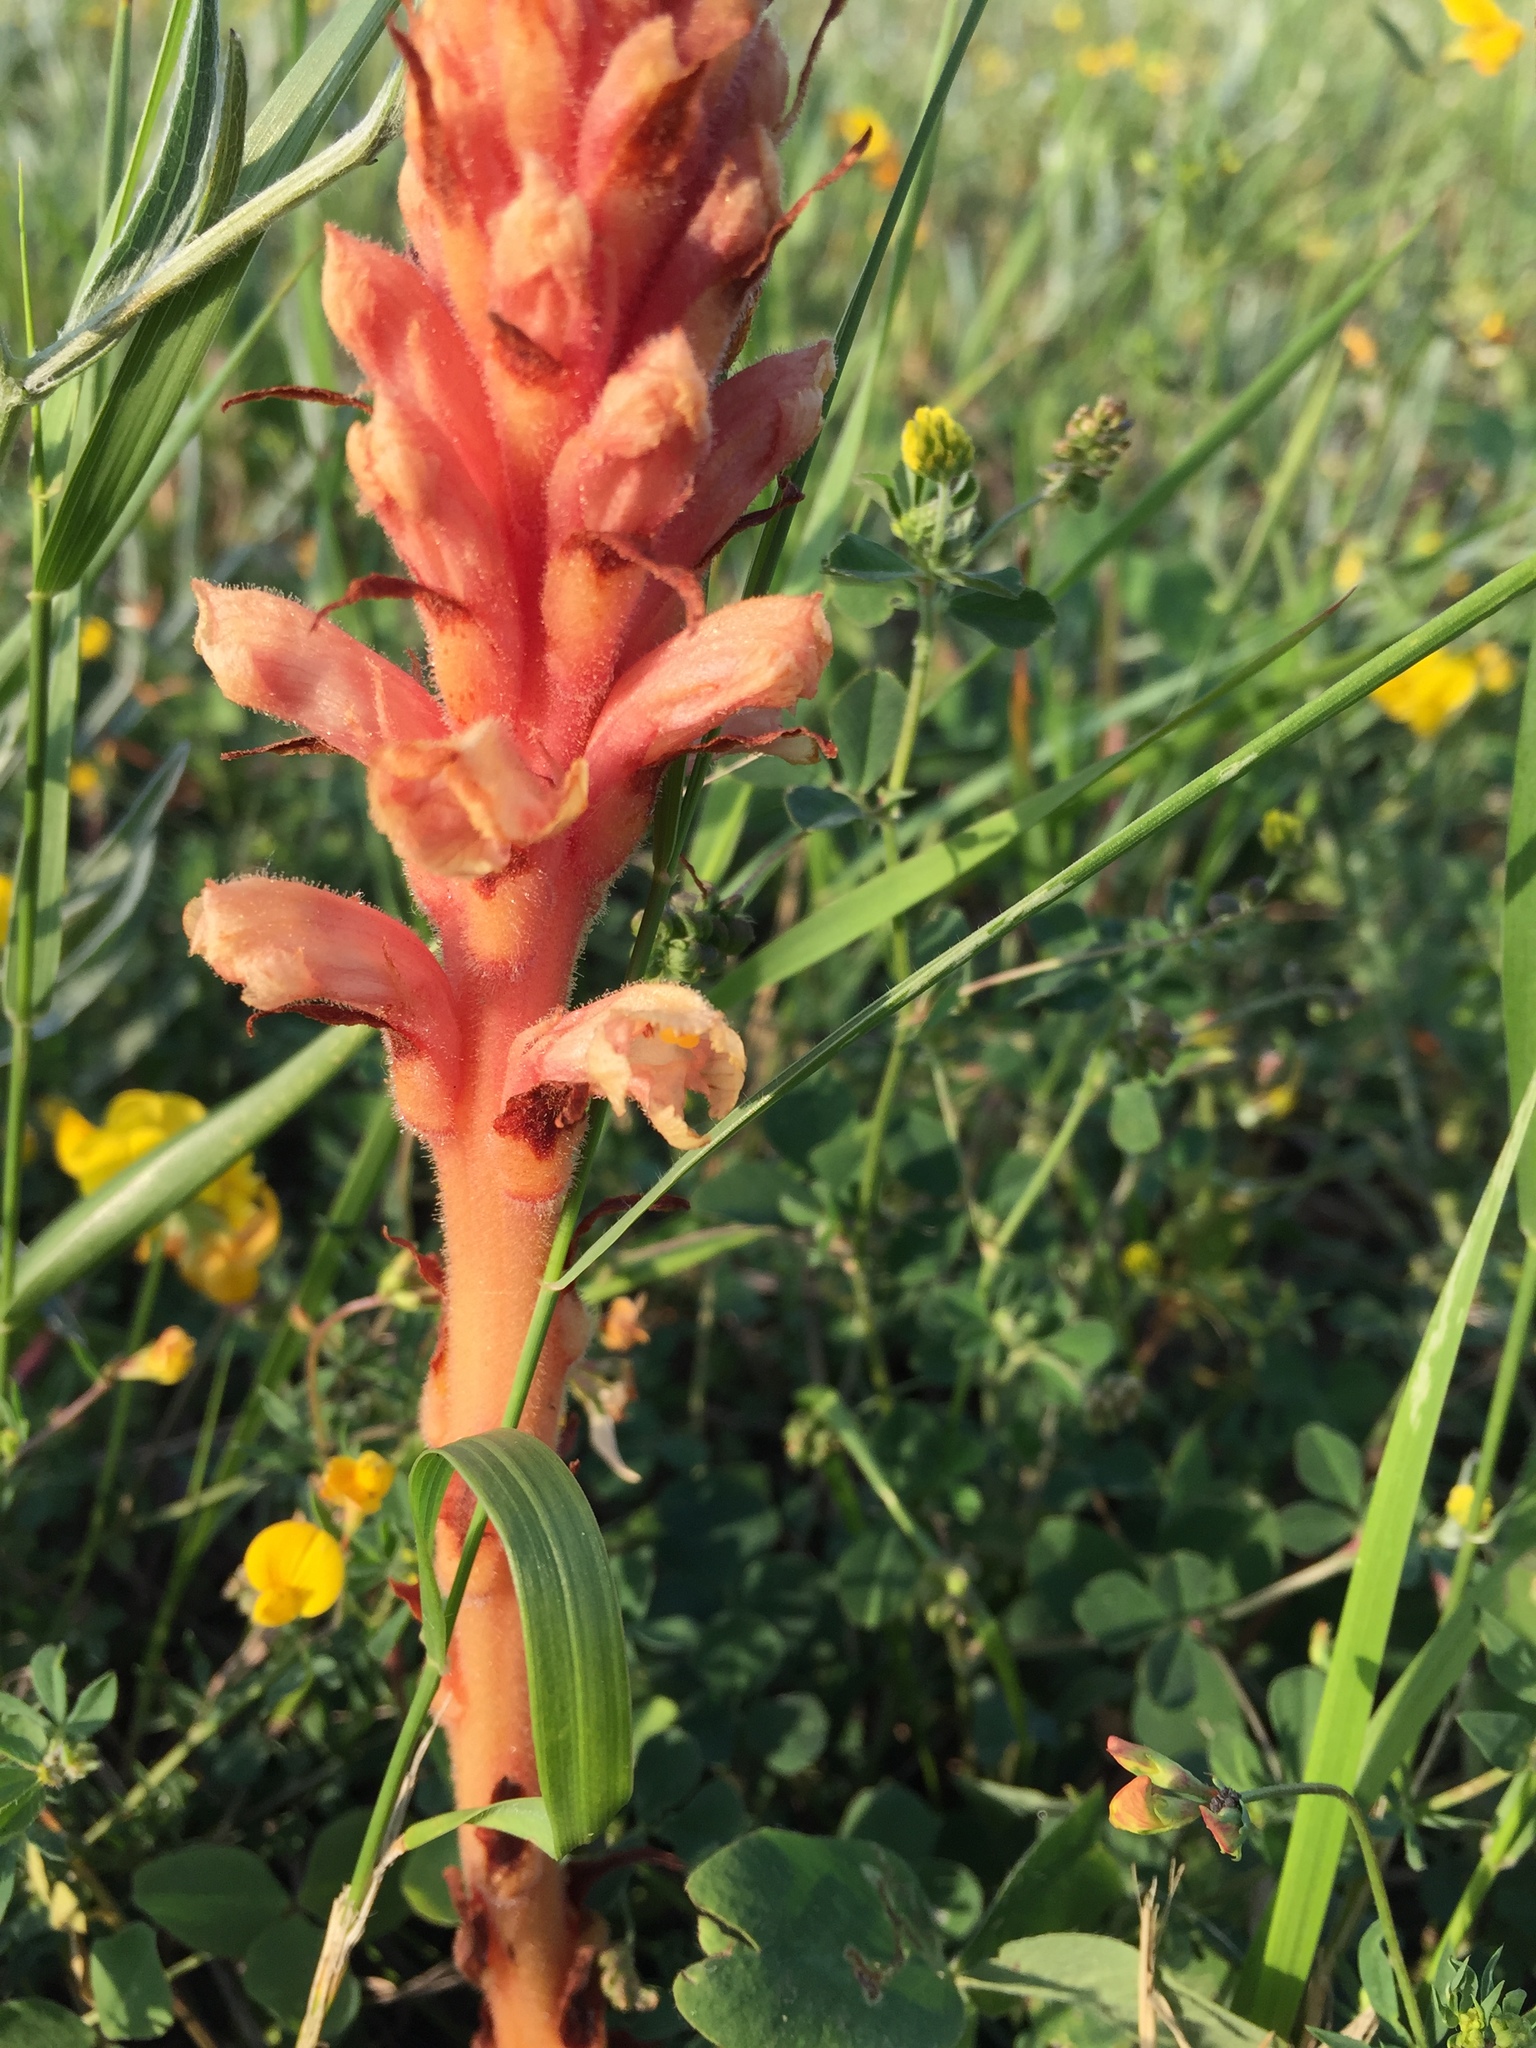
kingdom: Plantae
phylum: Tracheophyta
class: Magnoliopsida
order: Lamiales
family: Orobanchaceae
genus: Orobanche
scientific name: Orobanche centaurina
